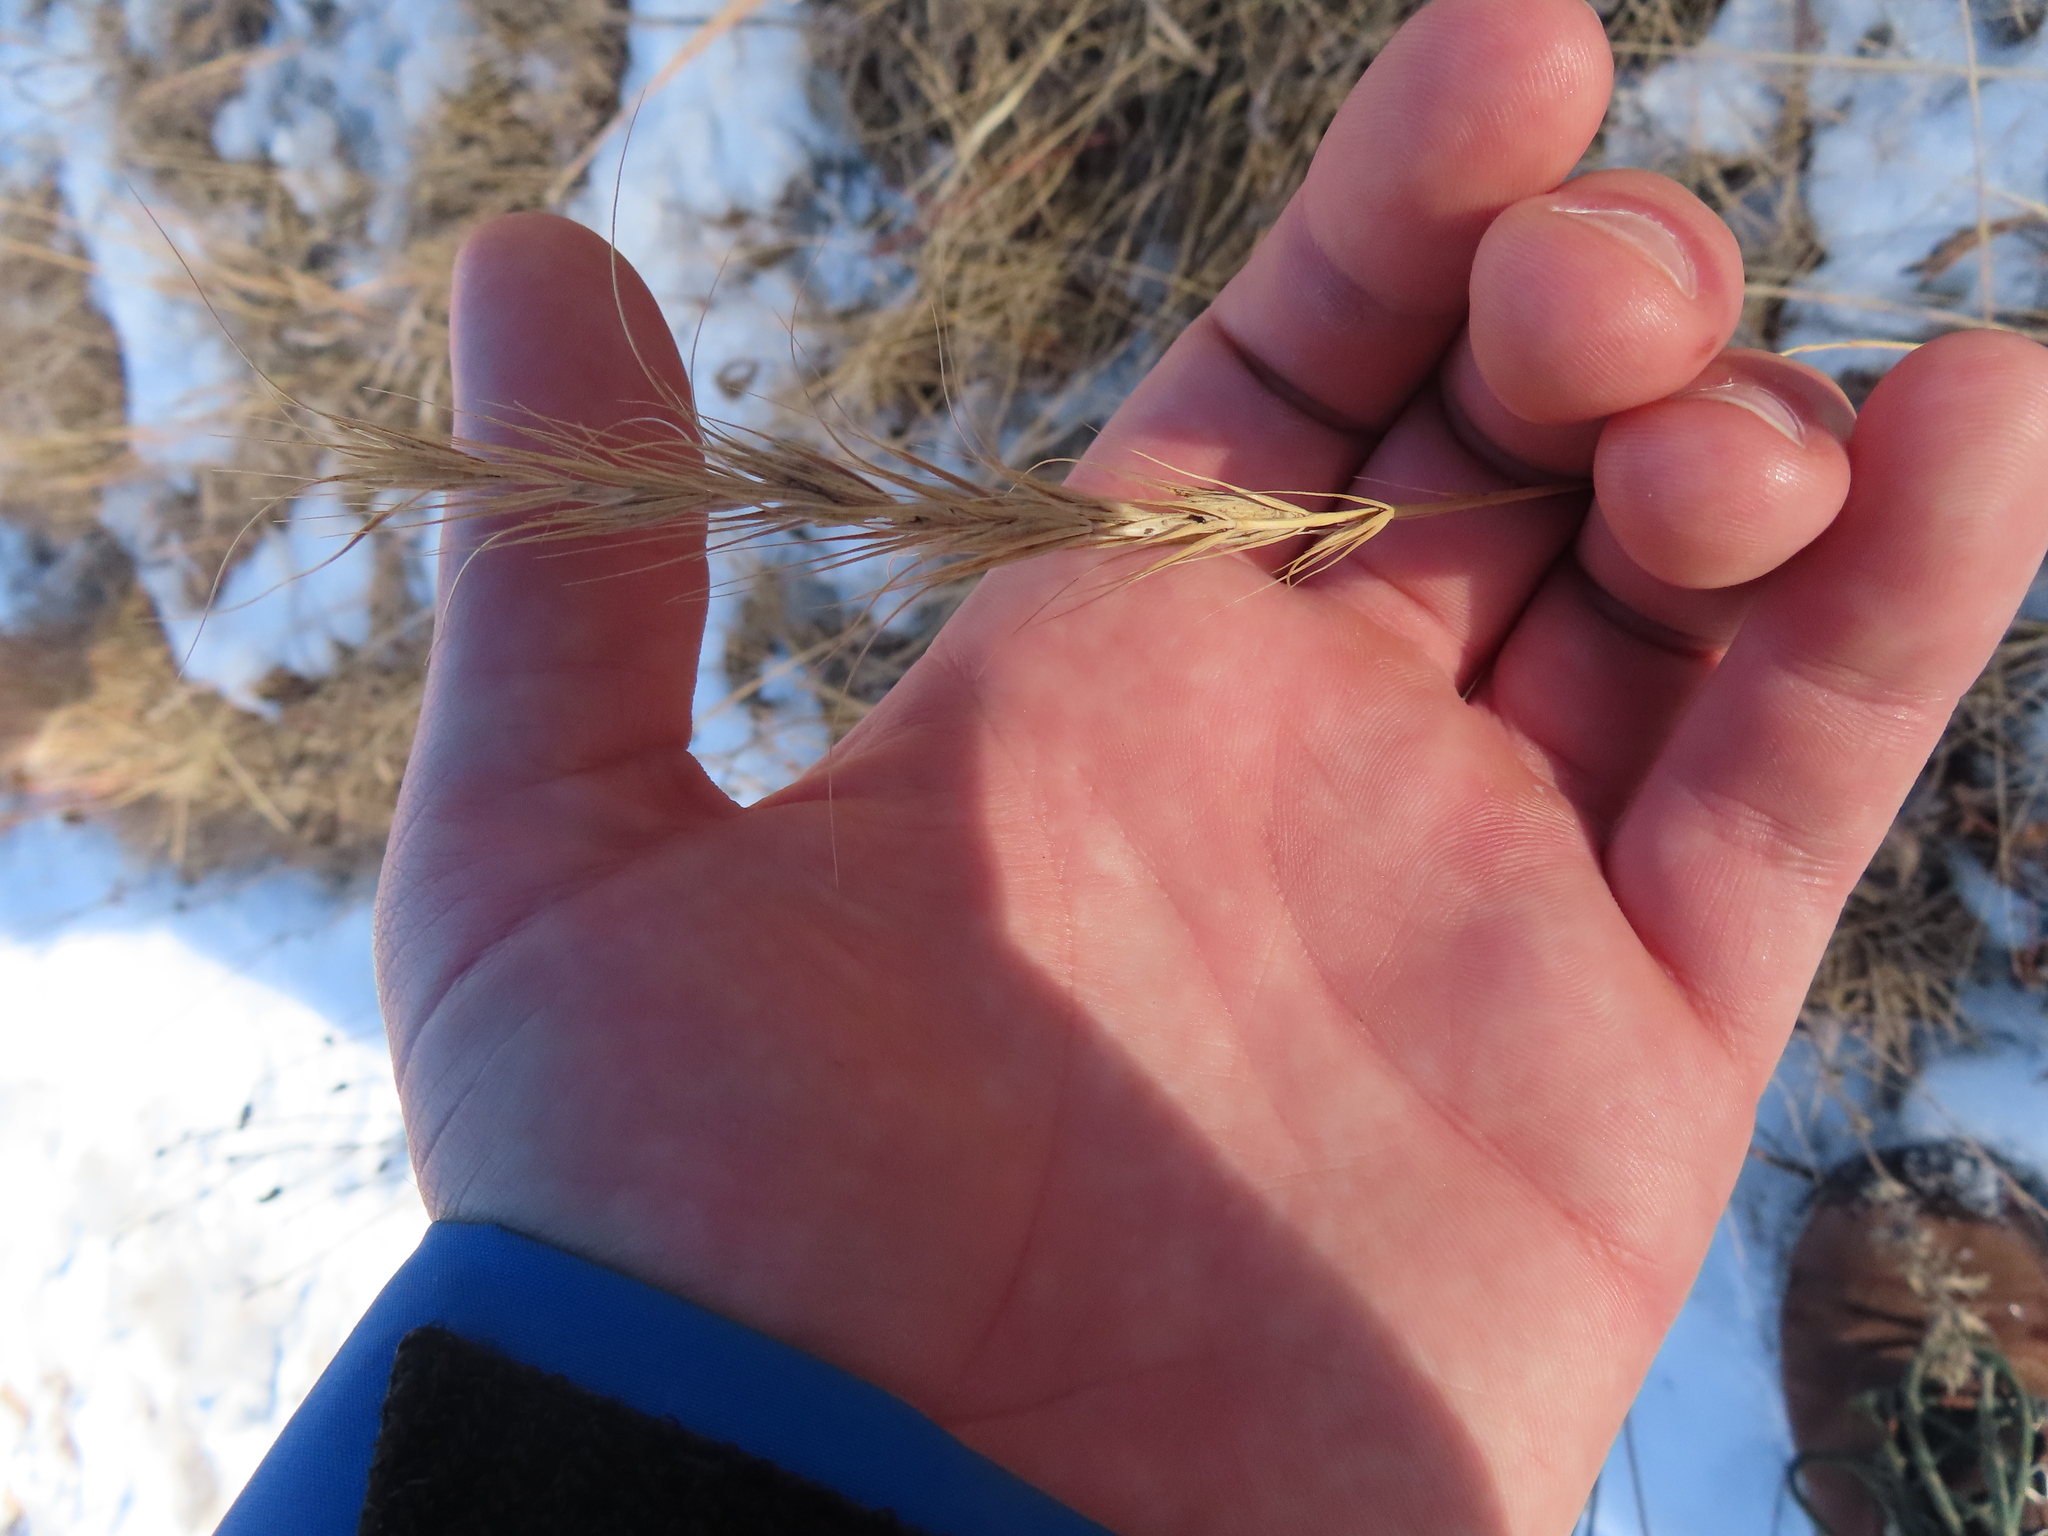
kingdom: Plantae
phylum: Tracheophyta
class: Liliopsida
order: Poales
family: Poaceae
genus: Elymus
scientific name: Elymus canadensis
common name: Canada wild rye
